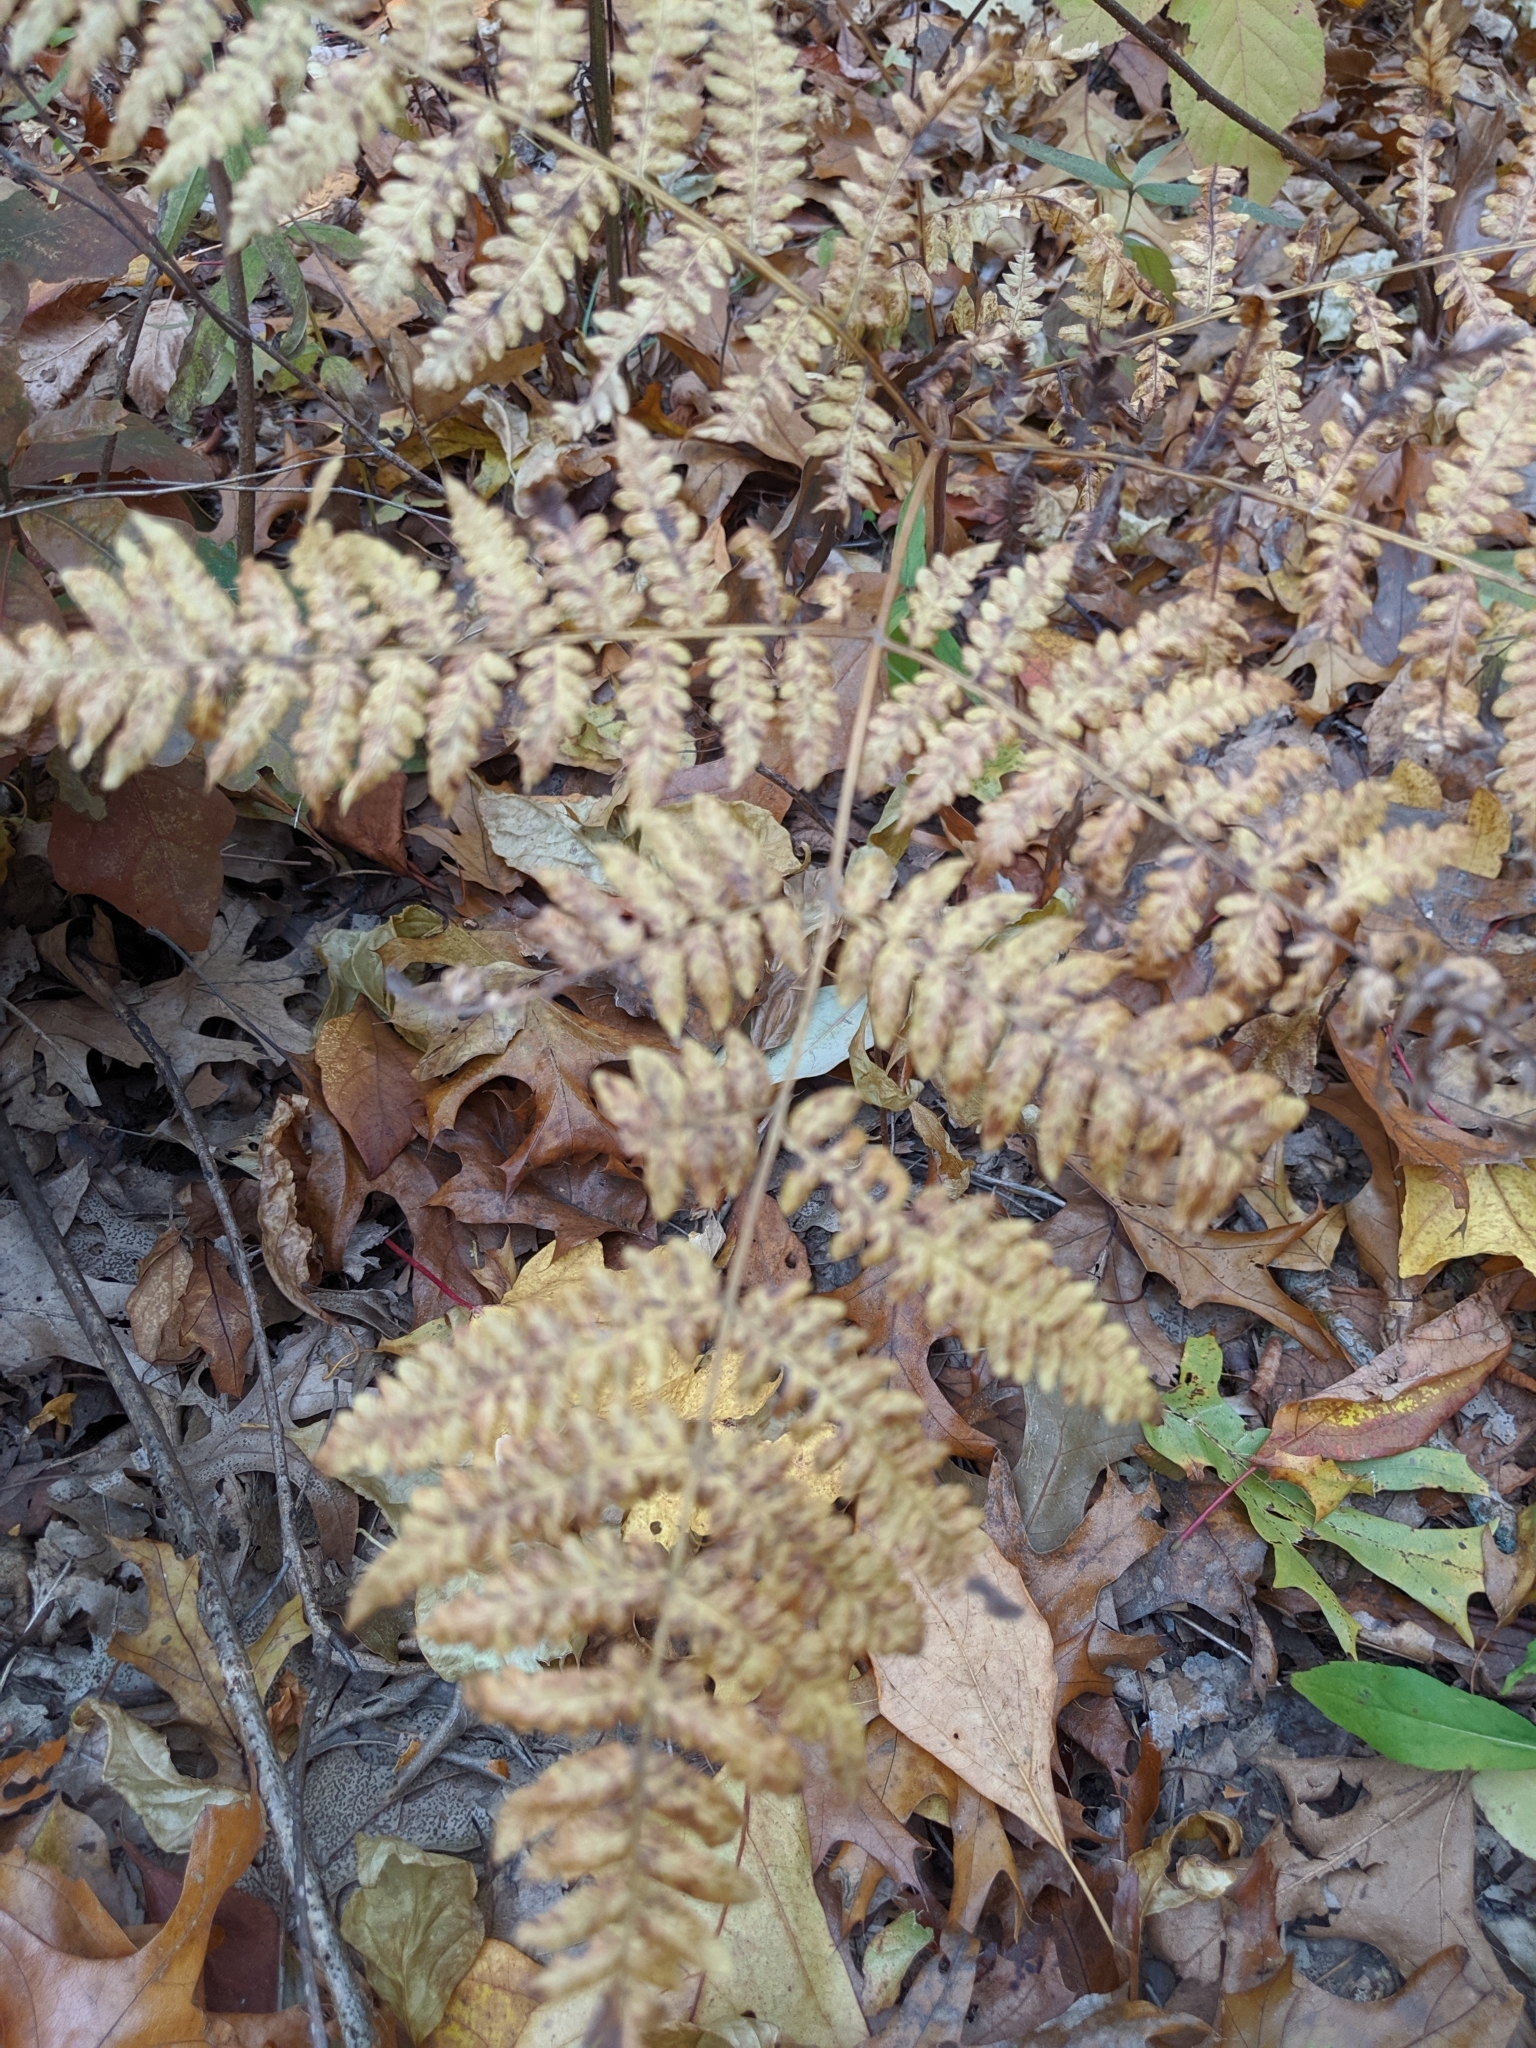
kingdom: Plantae
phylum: Tracheophyta
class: Polypodiopsida
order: Polypodiales
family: Dennstaedtiaceae
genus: Pteridium
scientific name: Pteridium aquilinum
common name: Bracken
